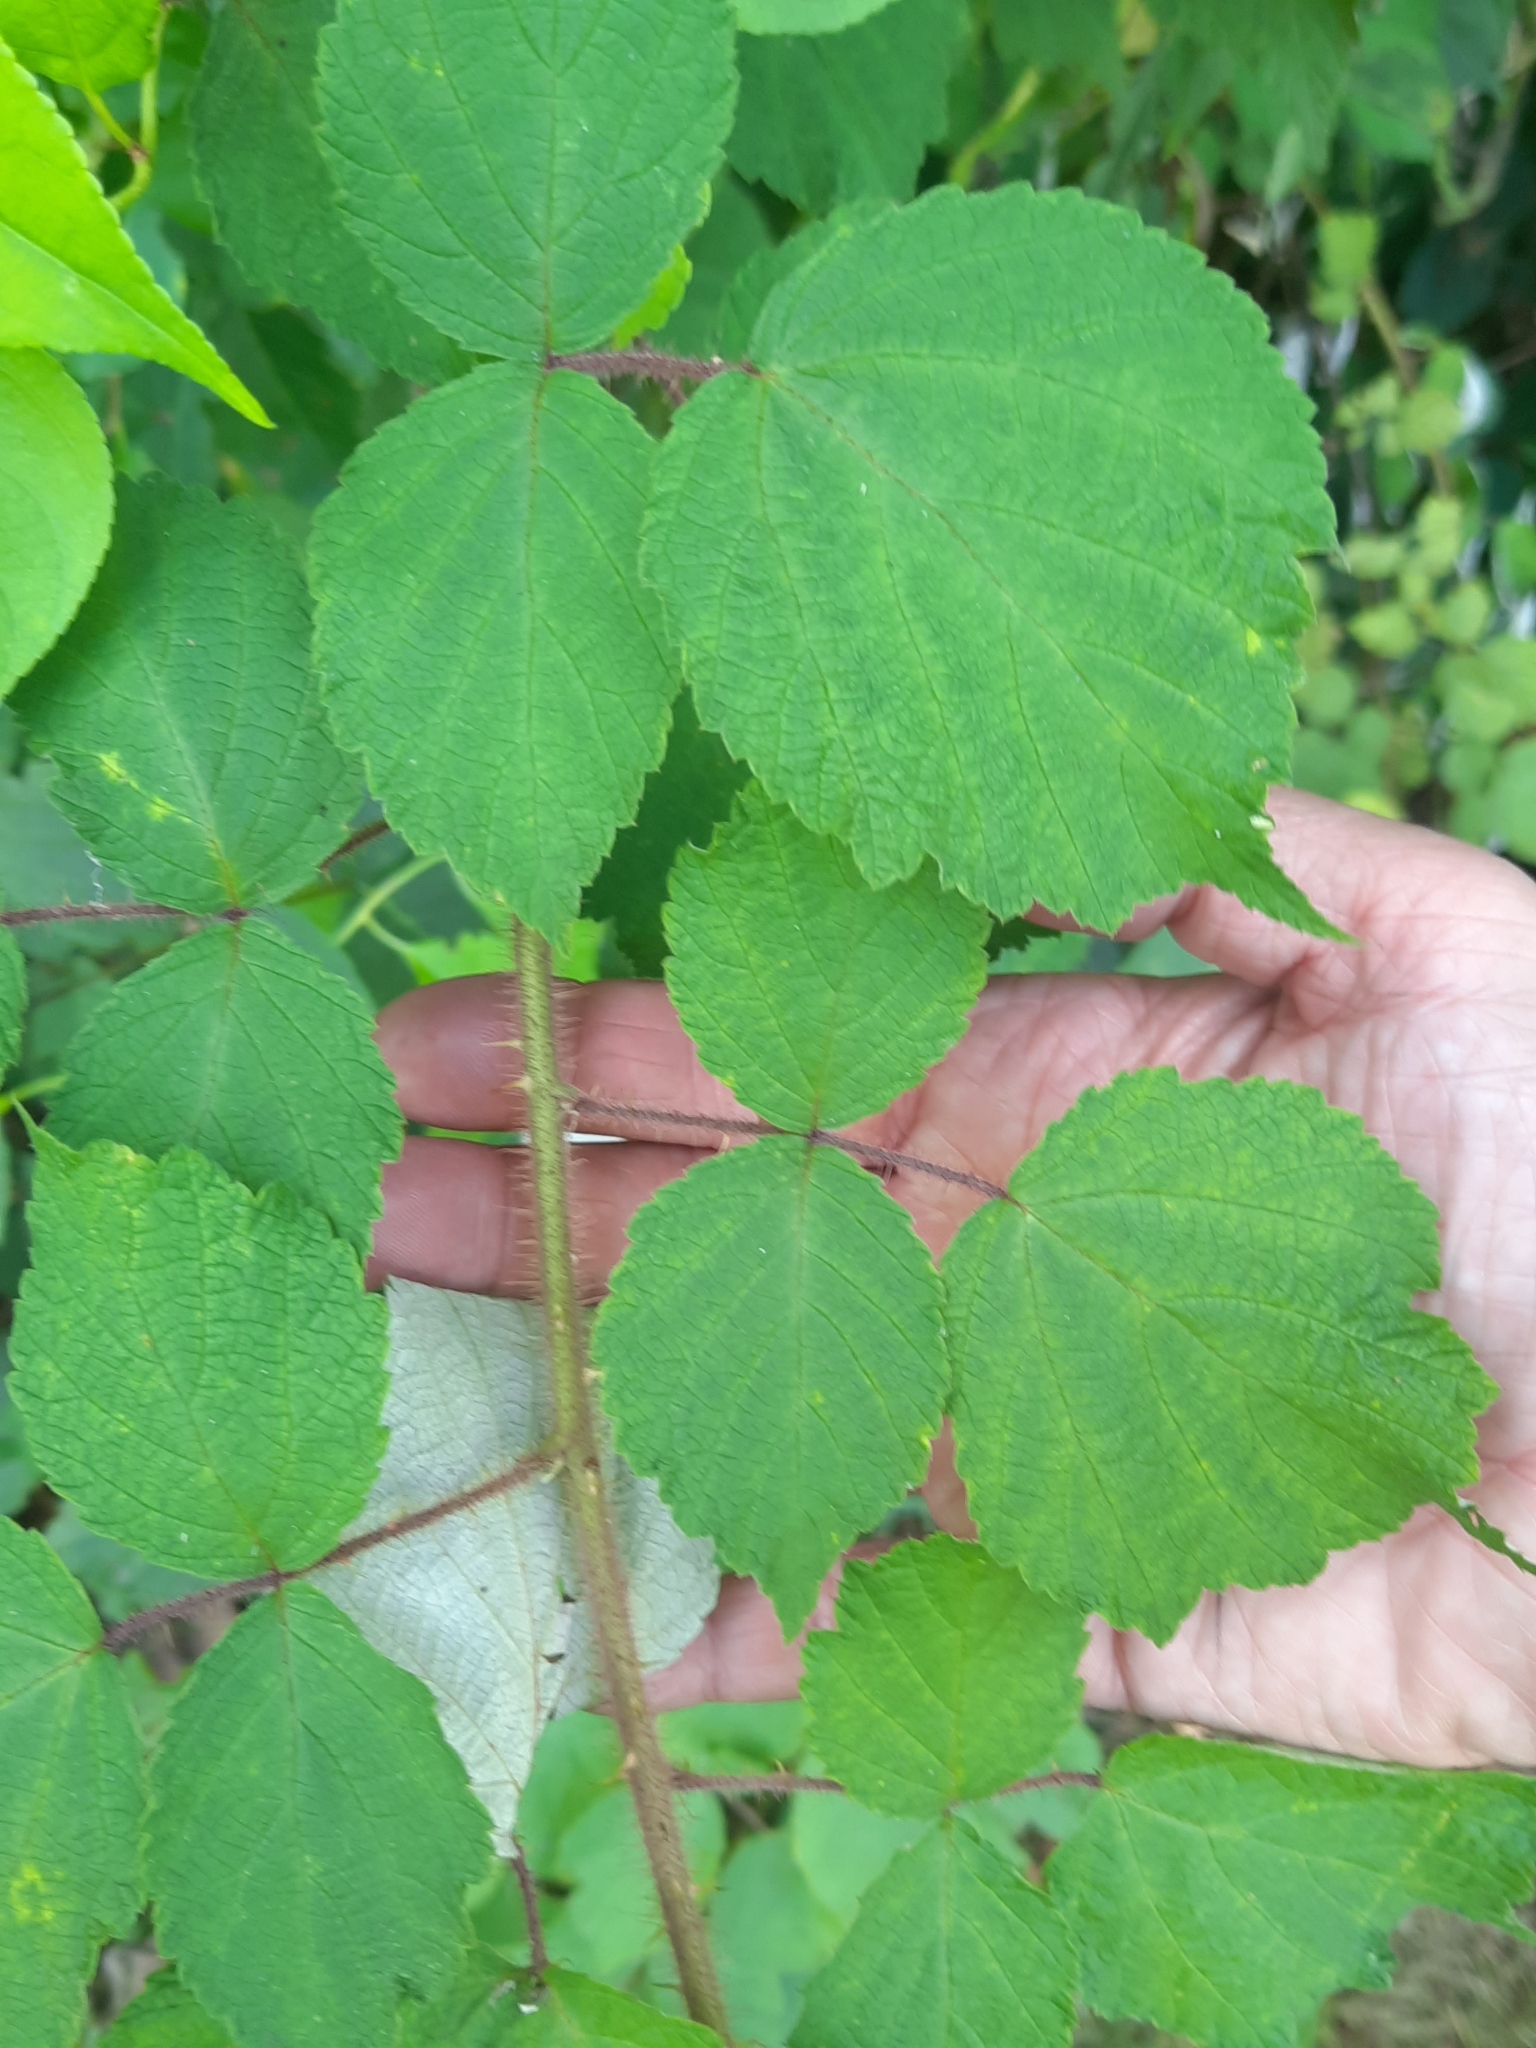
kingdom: Plantae
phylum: Tracheophyta
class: Magnoliopsida
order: Rosales
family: Rosaceae
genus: Rubus
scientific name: Rubus phoenicolasius
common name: Japanese wineberry
